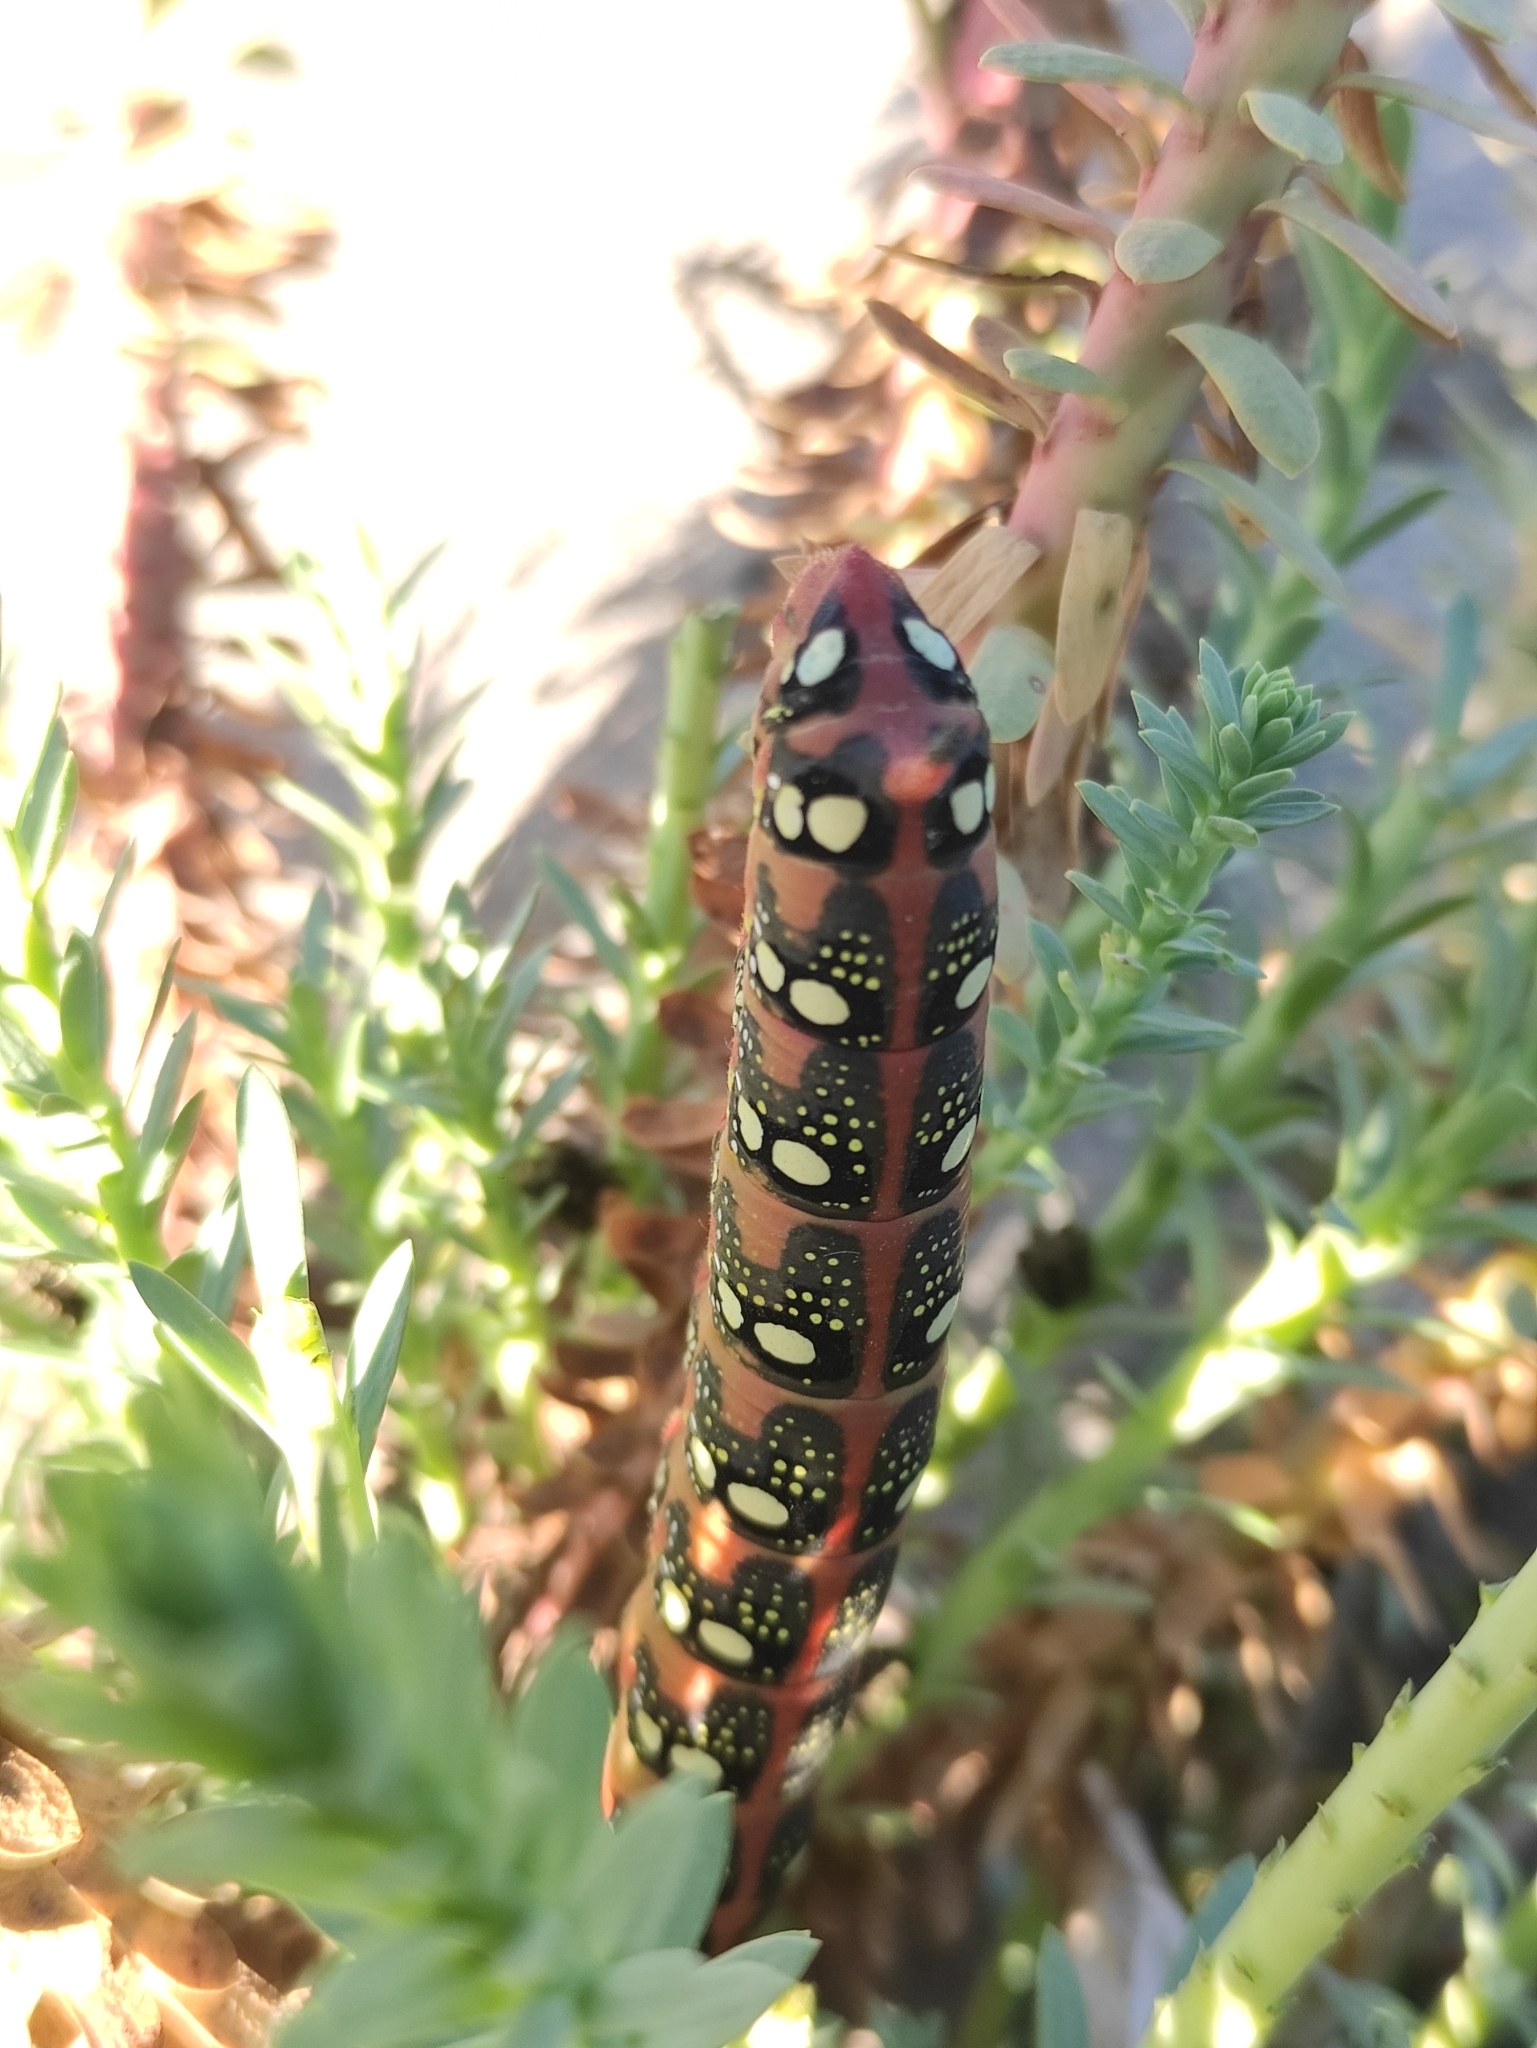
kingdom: Animalia
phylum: Arthropoda
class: Insecta
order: Lepidoptera
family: Sphingidae
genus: Hyles
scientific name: Hyles euphorbiae
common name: Spurge hawk-moth
